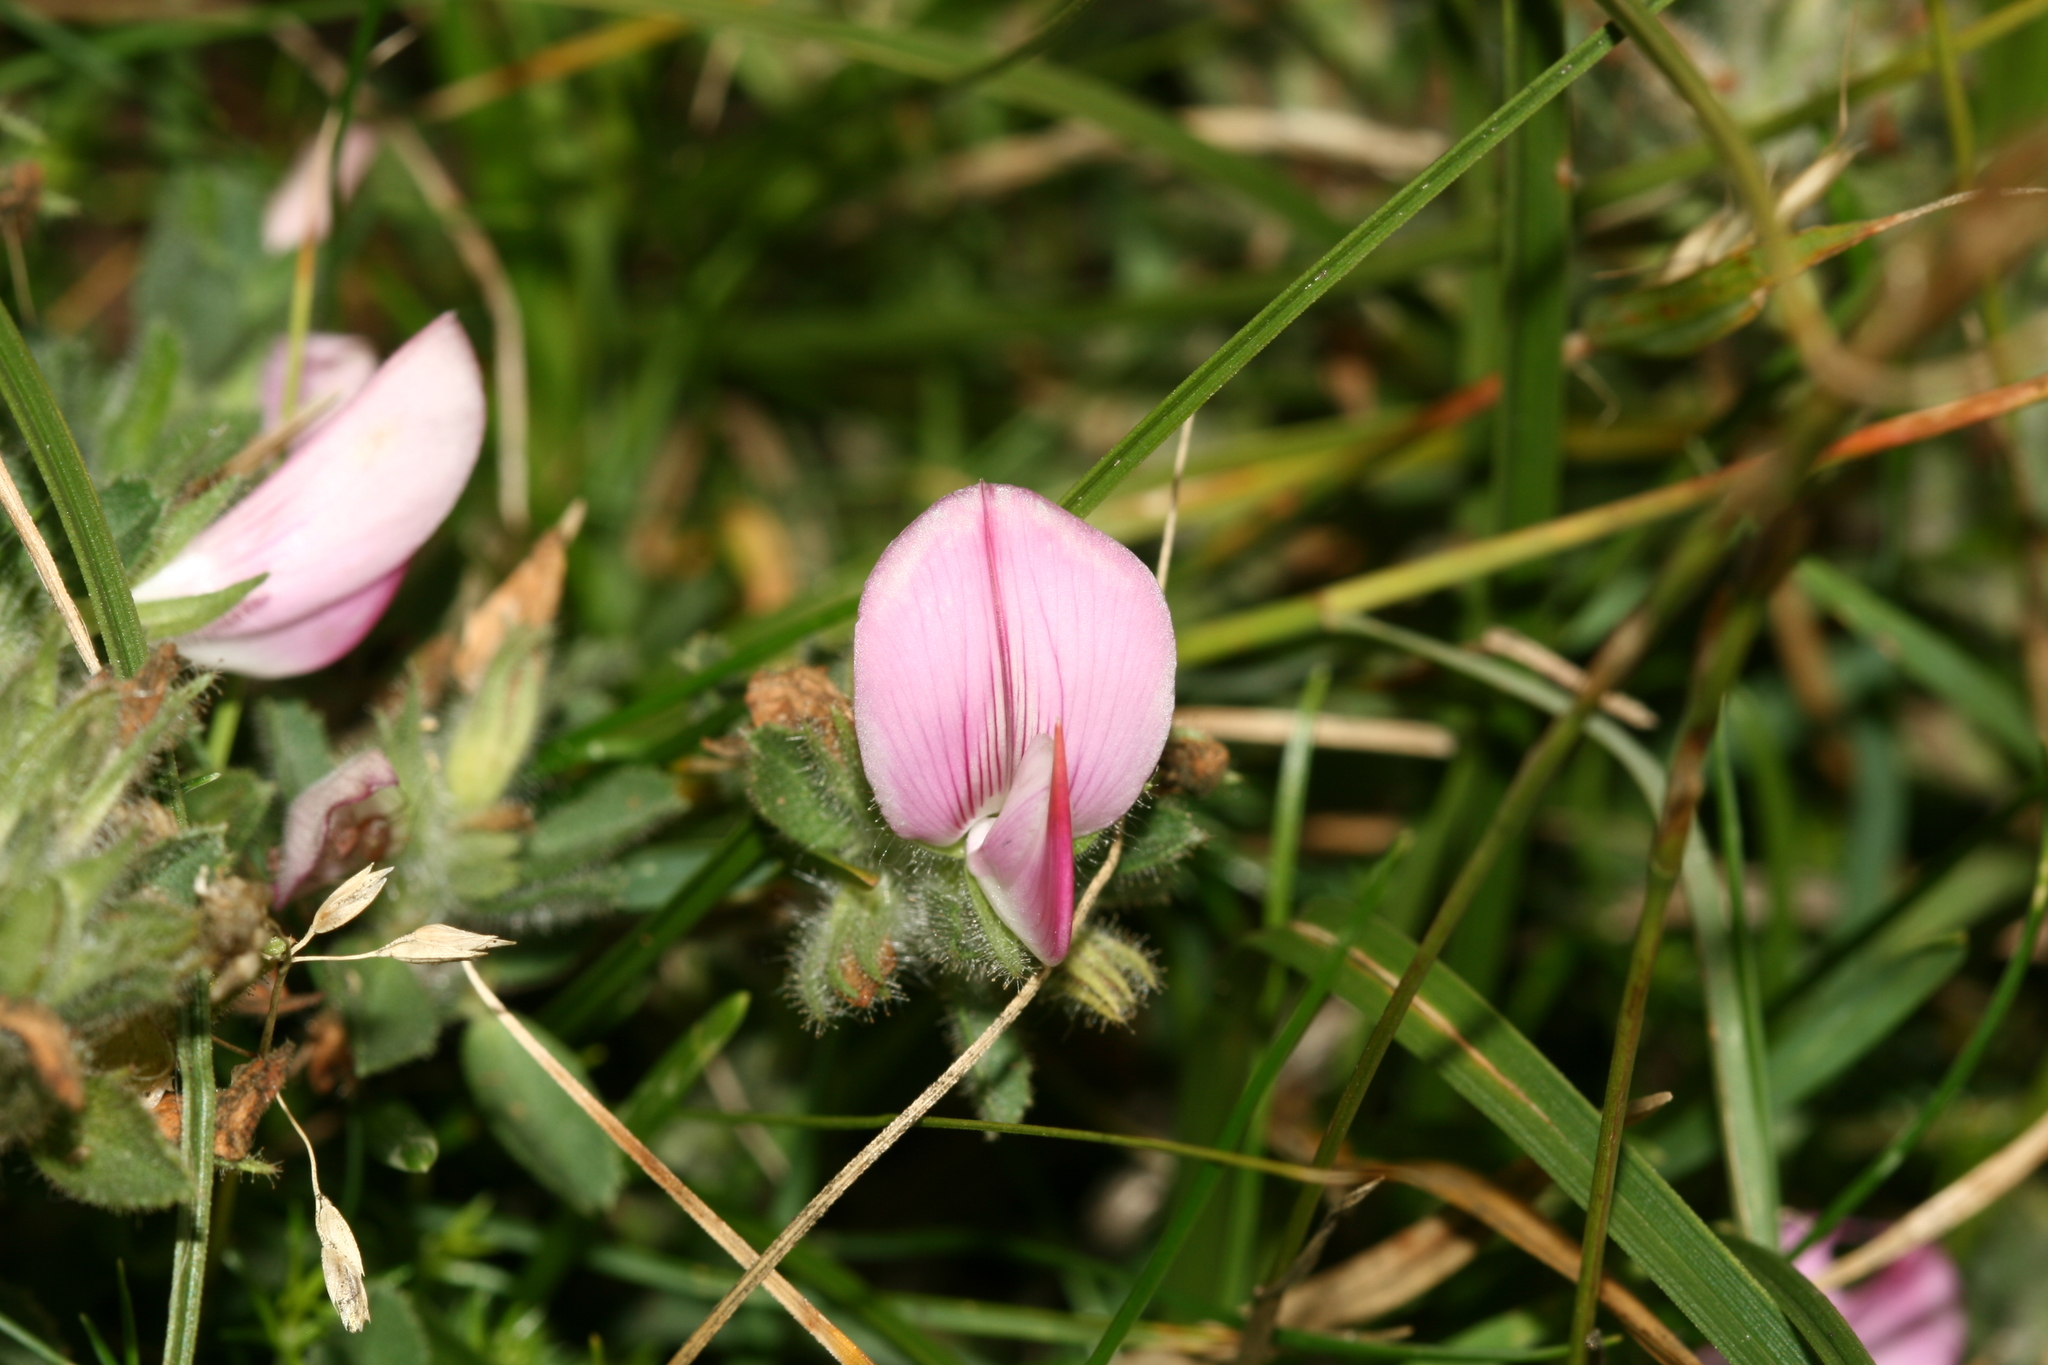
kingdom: Plantae
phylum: Tracheophyta
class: Magnoliopsida
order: Fabales
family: Fabaceae
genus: Ononis
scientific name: Ononis spinosa
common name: Spiny restharrow
